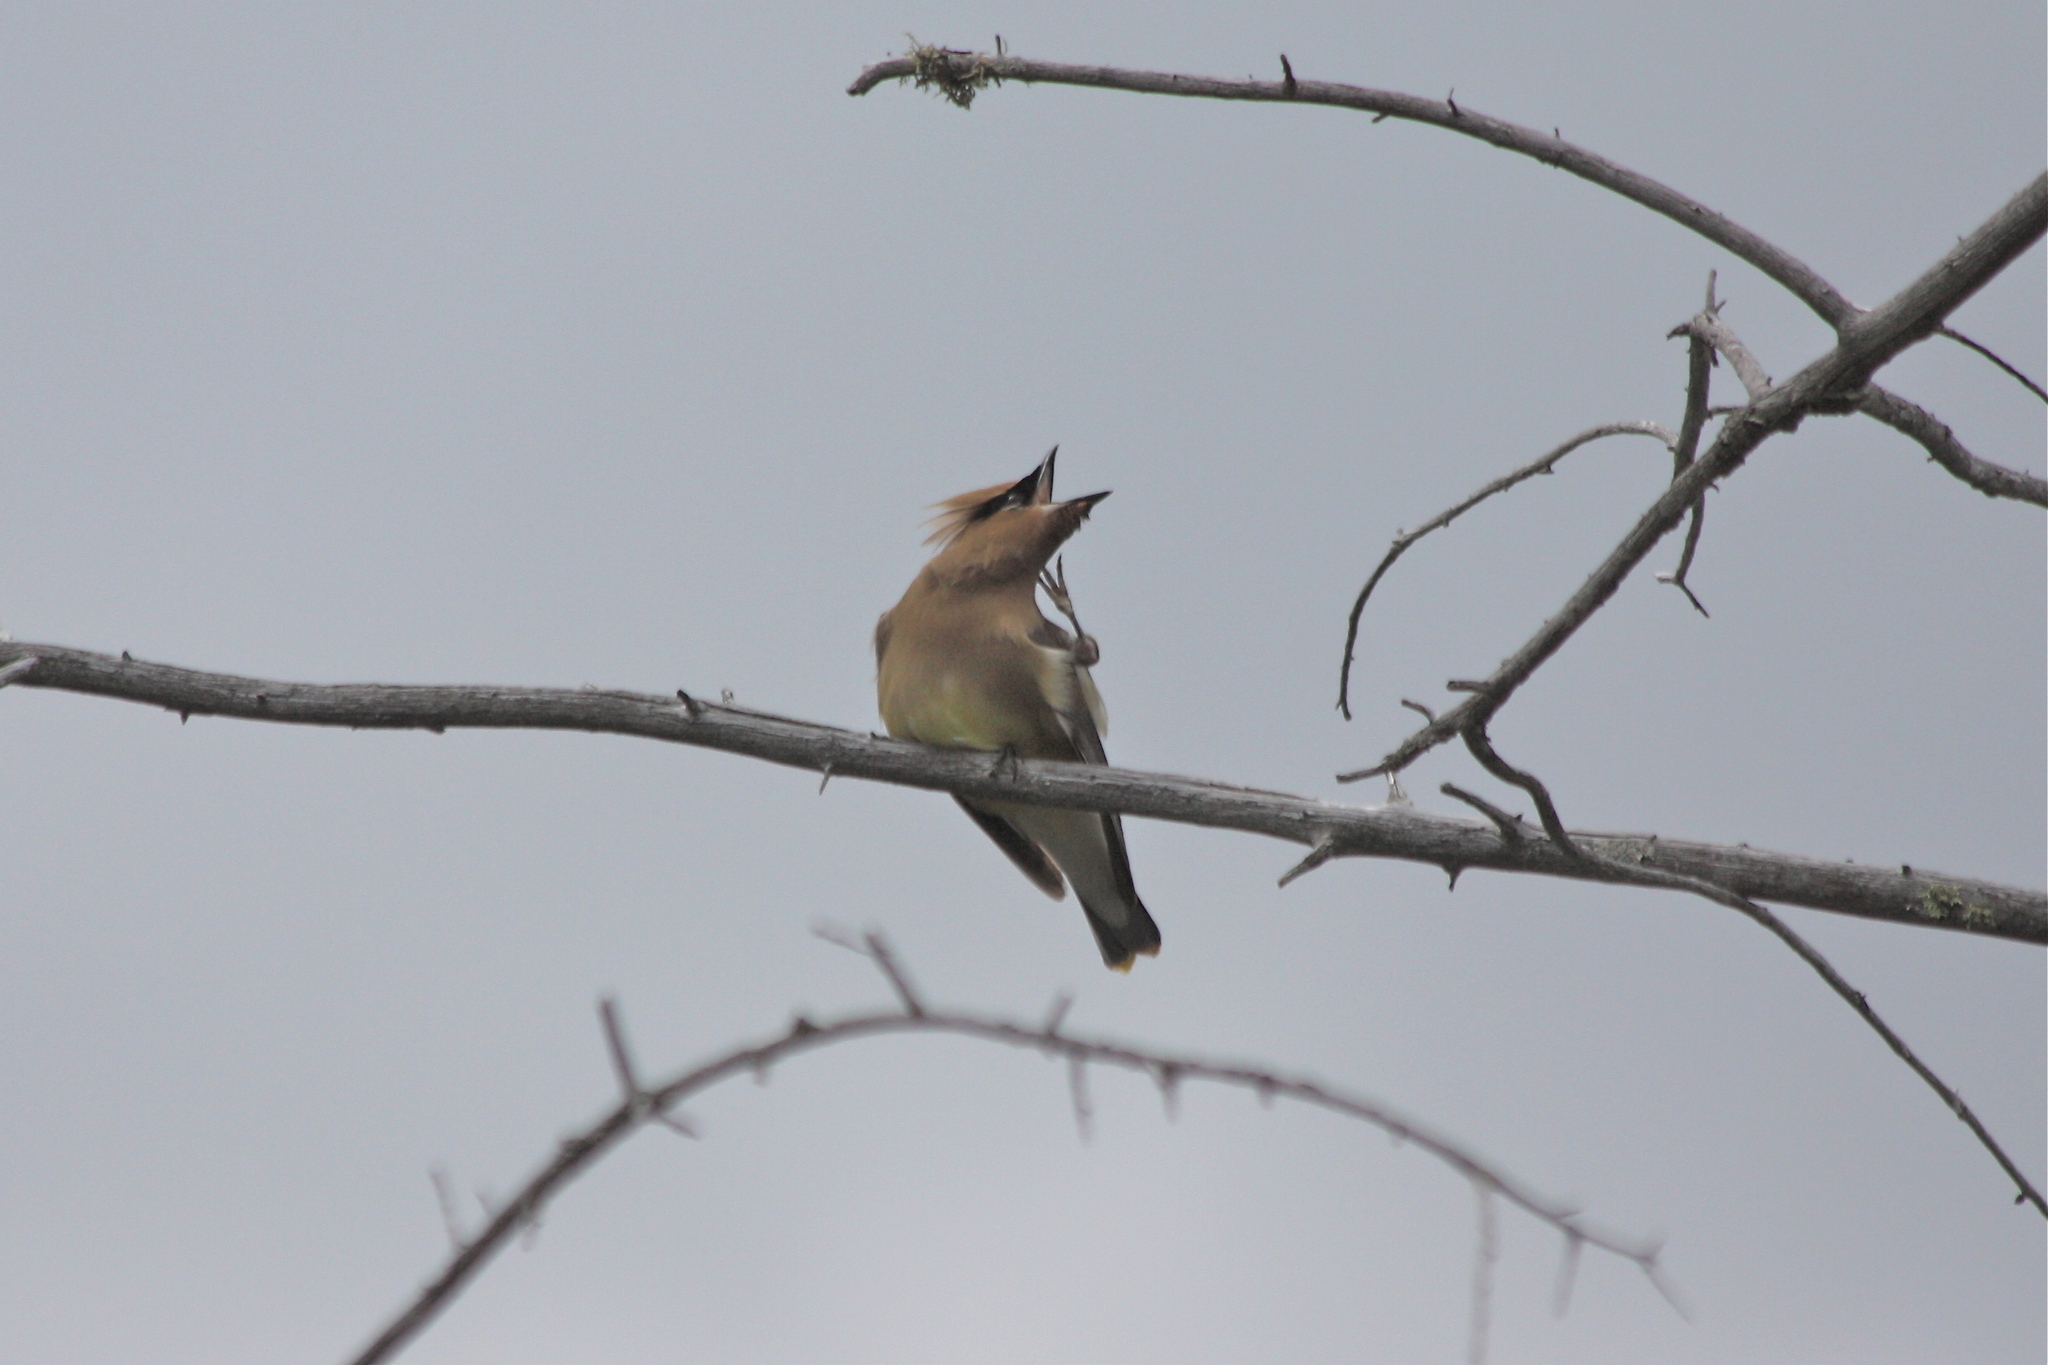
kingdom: Animalia
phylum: Chordata
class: Aves
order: Passeriformes
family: Bombycillidae
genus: Bombycilla
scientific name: Bombycilla cedrorum
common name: Cedar waxwing
